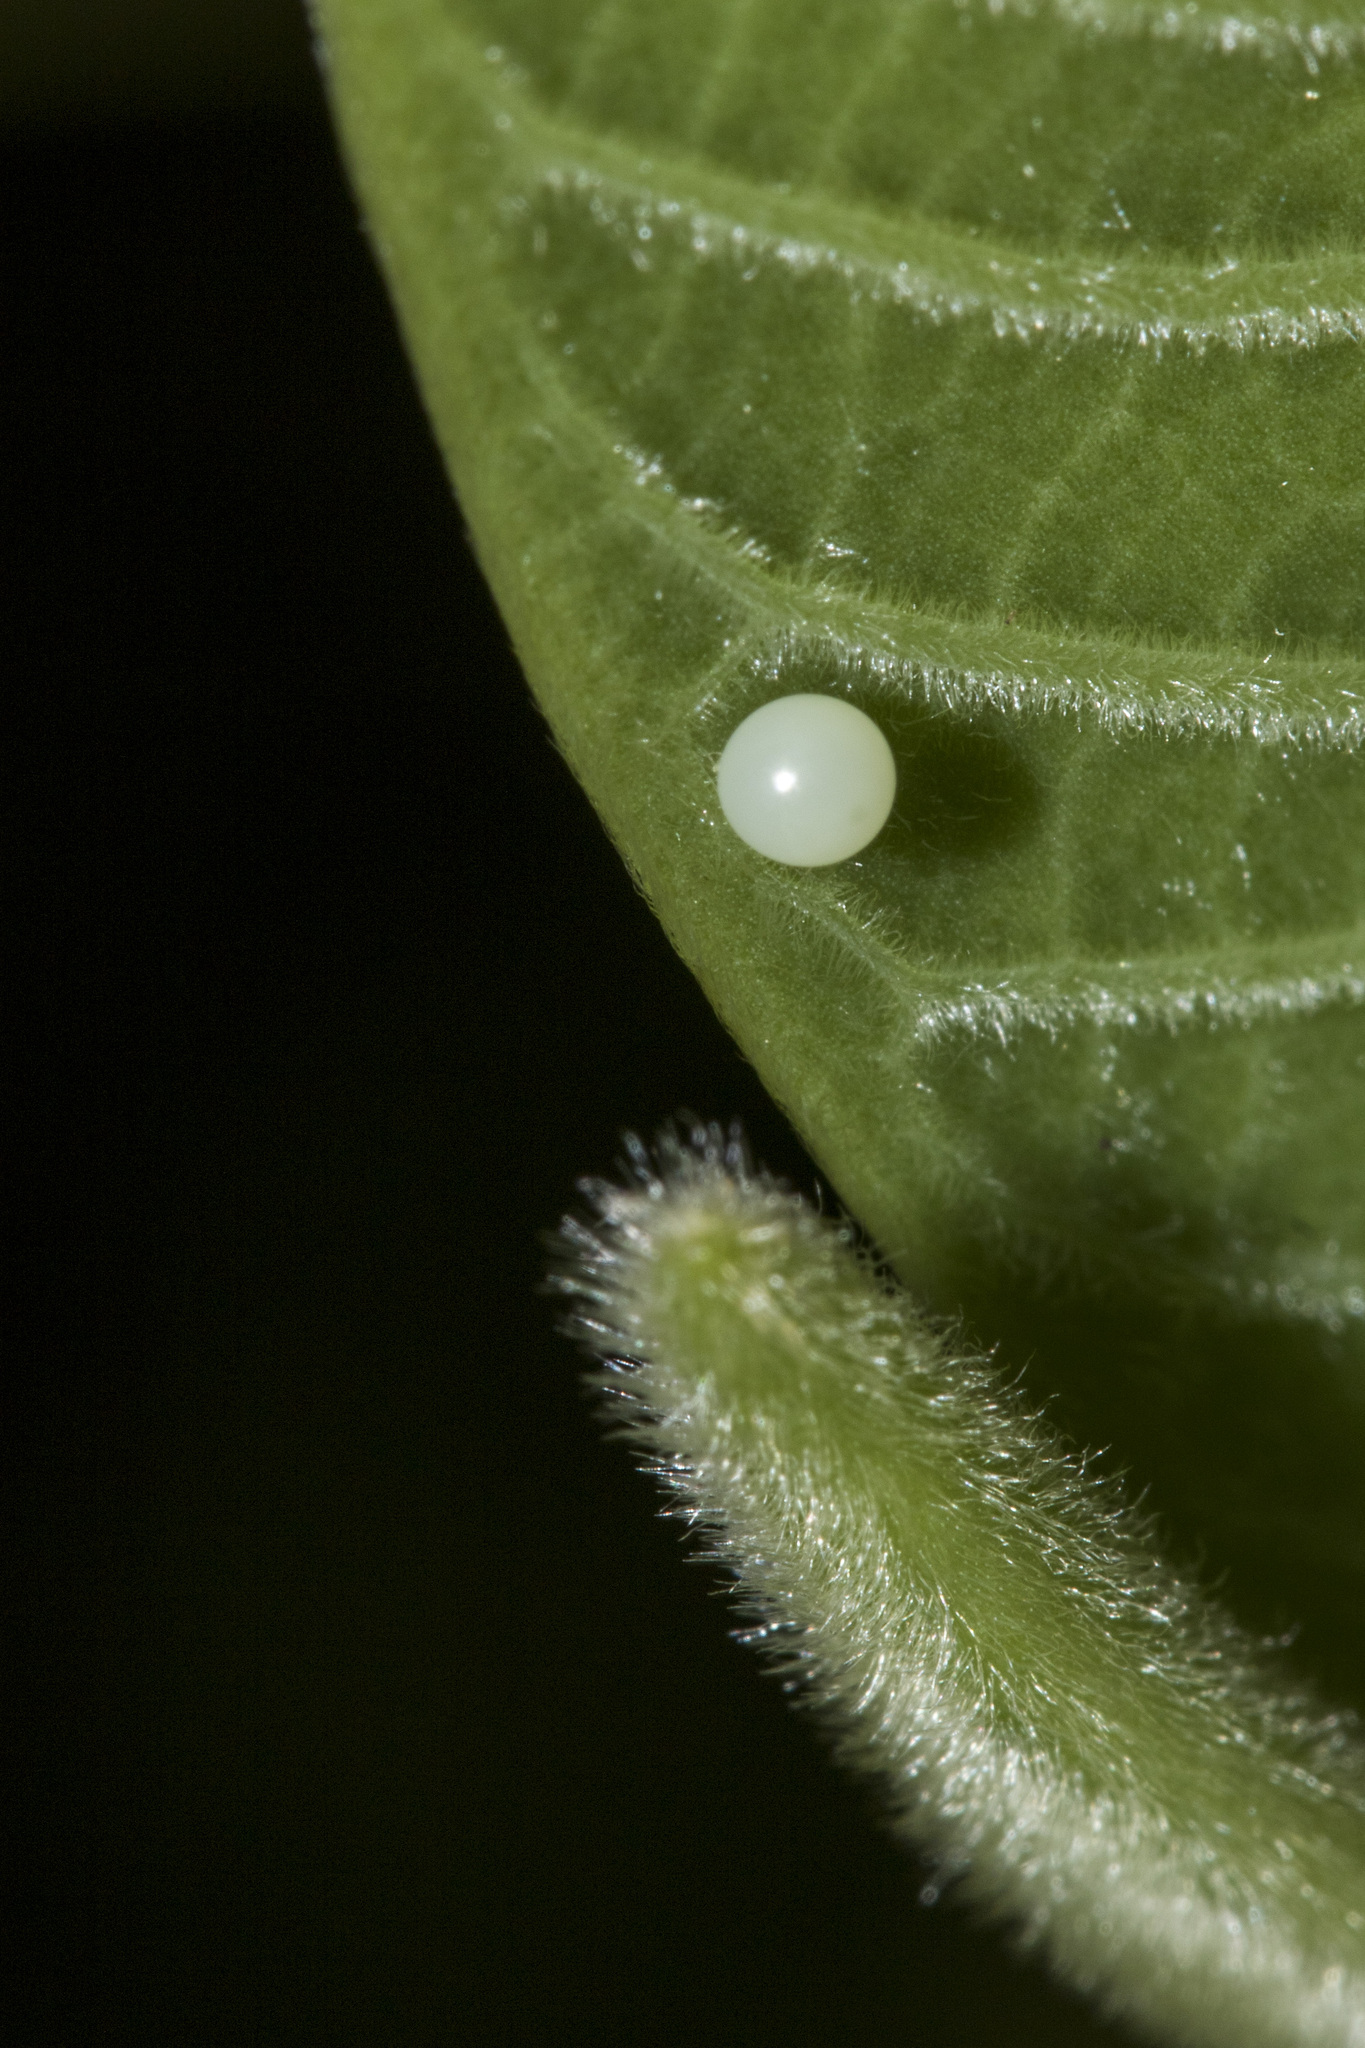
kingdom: Animalia
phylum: Arthropoda
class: Insecta
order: Lepidoptera
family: Papilionidae
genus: Graphium
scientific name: Graphium agamemnon
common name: Tailed jay
